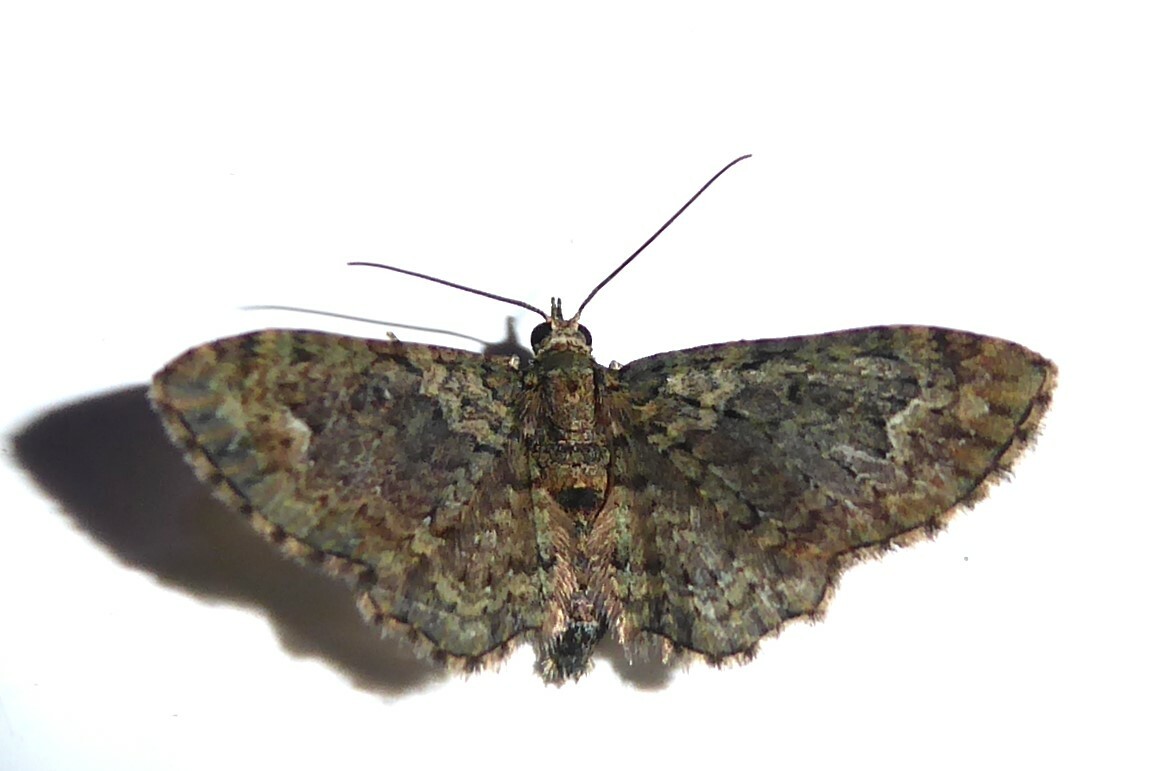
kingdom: Animalia
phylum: Arthropoda
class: Insecta
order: Lepidoptera
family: Geometridae
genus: Pasiphilodes
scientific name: Pasiphilodes testulata
